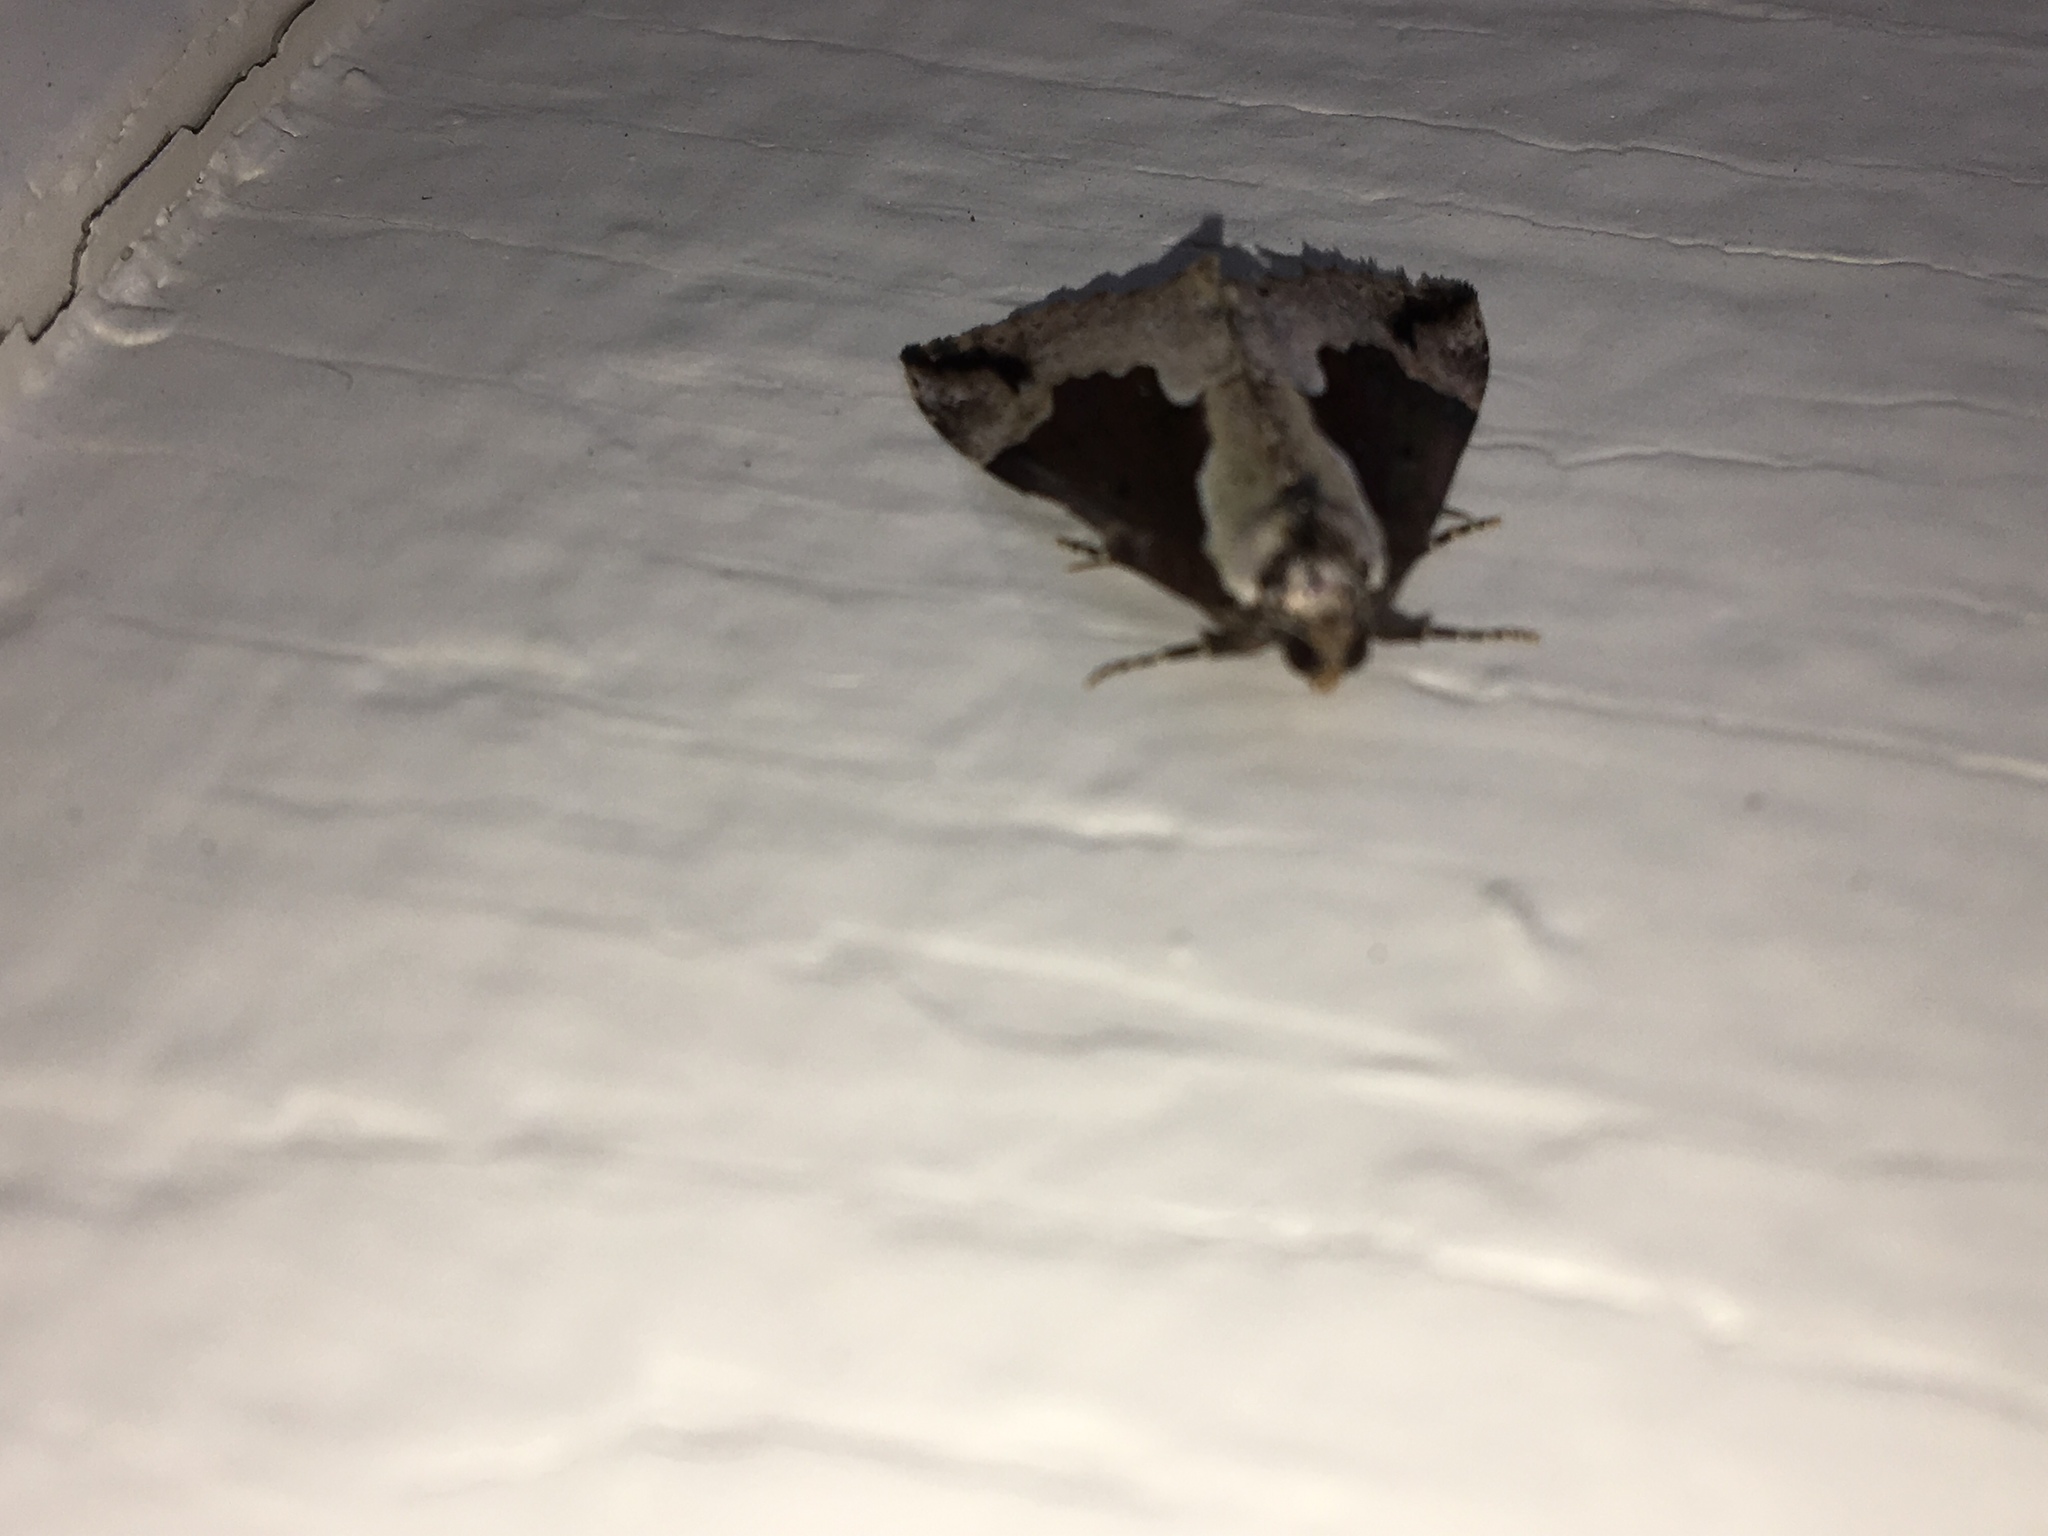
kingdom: Animalia
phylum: Arthropoda
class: Insecta
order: Lepidoptera
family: Erebidae
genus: Hypena
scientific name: Hypena baltimoralis
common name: Baltimore snout
